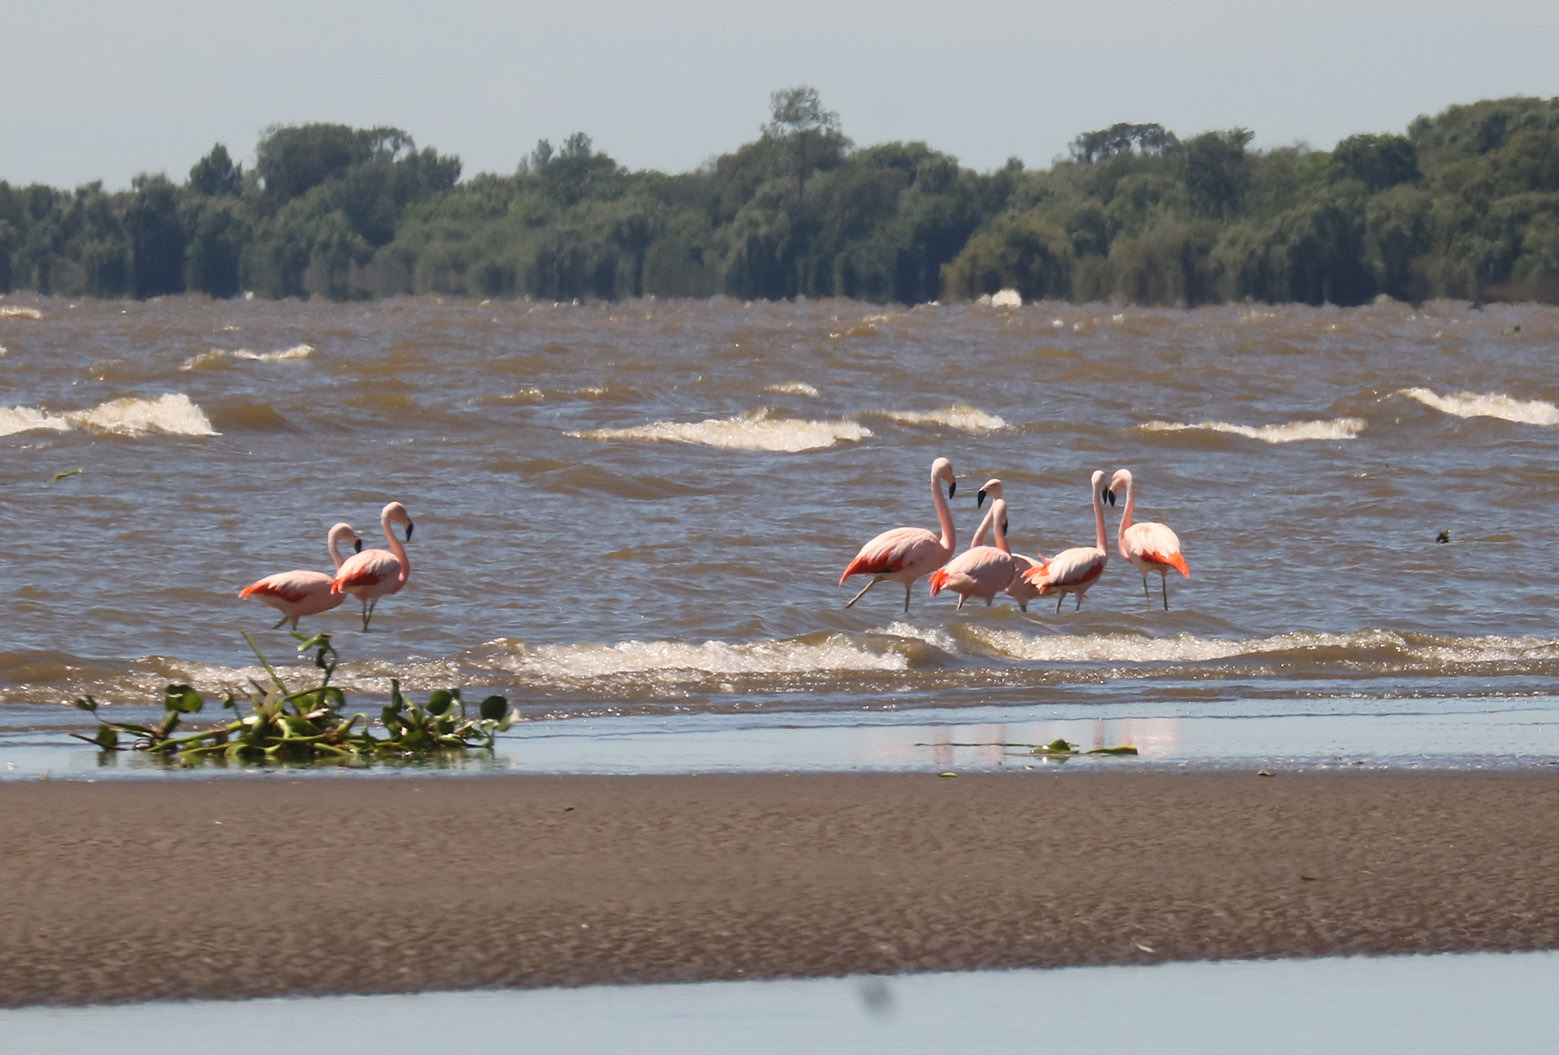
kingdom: Animalia
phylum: Chordata
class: Aves
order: Phoenicopteriformes
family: Phoenicopteridae
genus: Phoenicopterus
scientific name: Phoenicopterus chilensis
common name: Chilean flamingo
